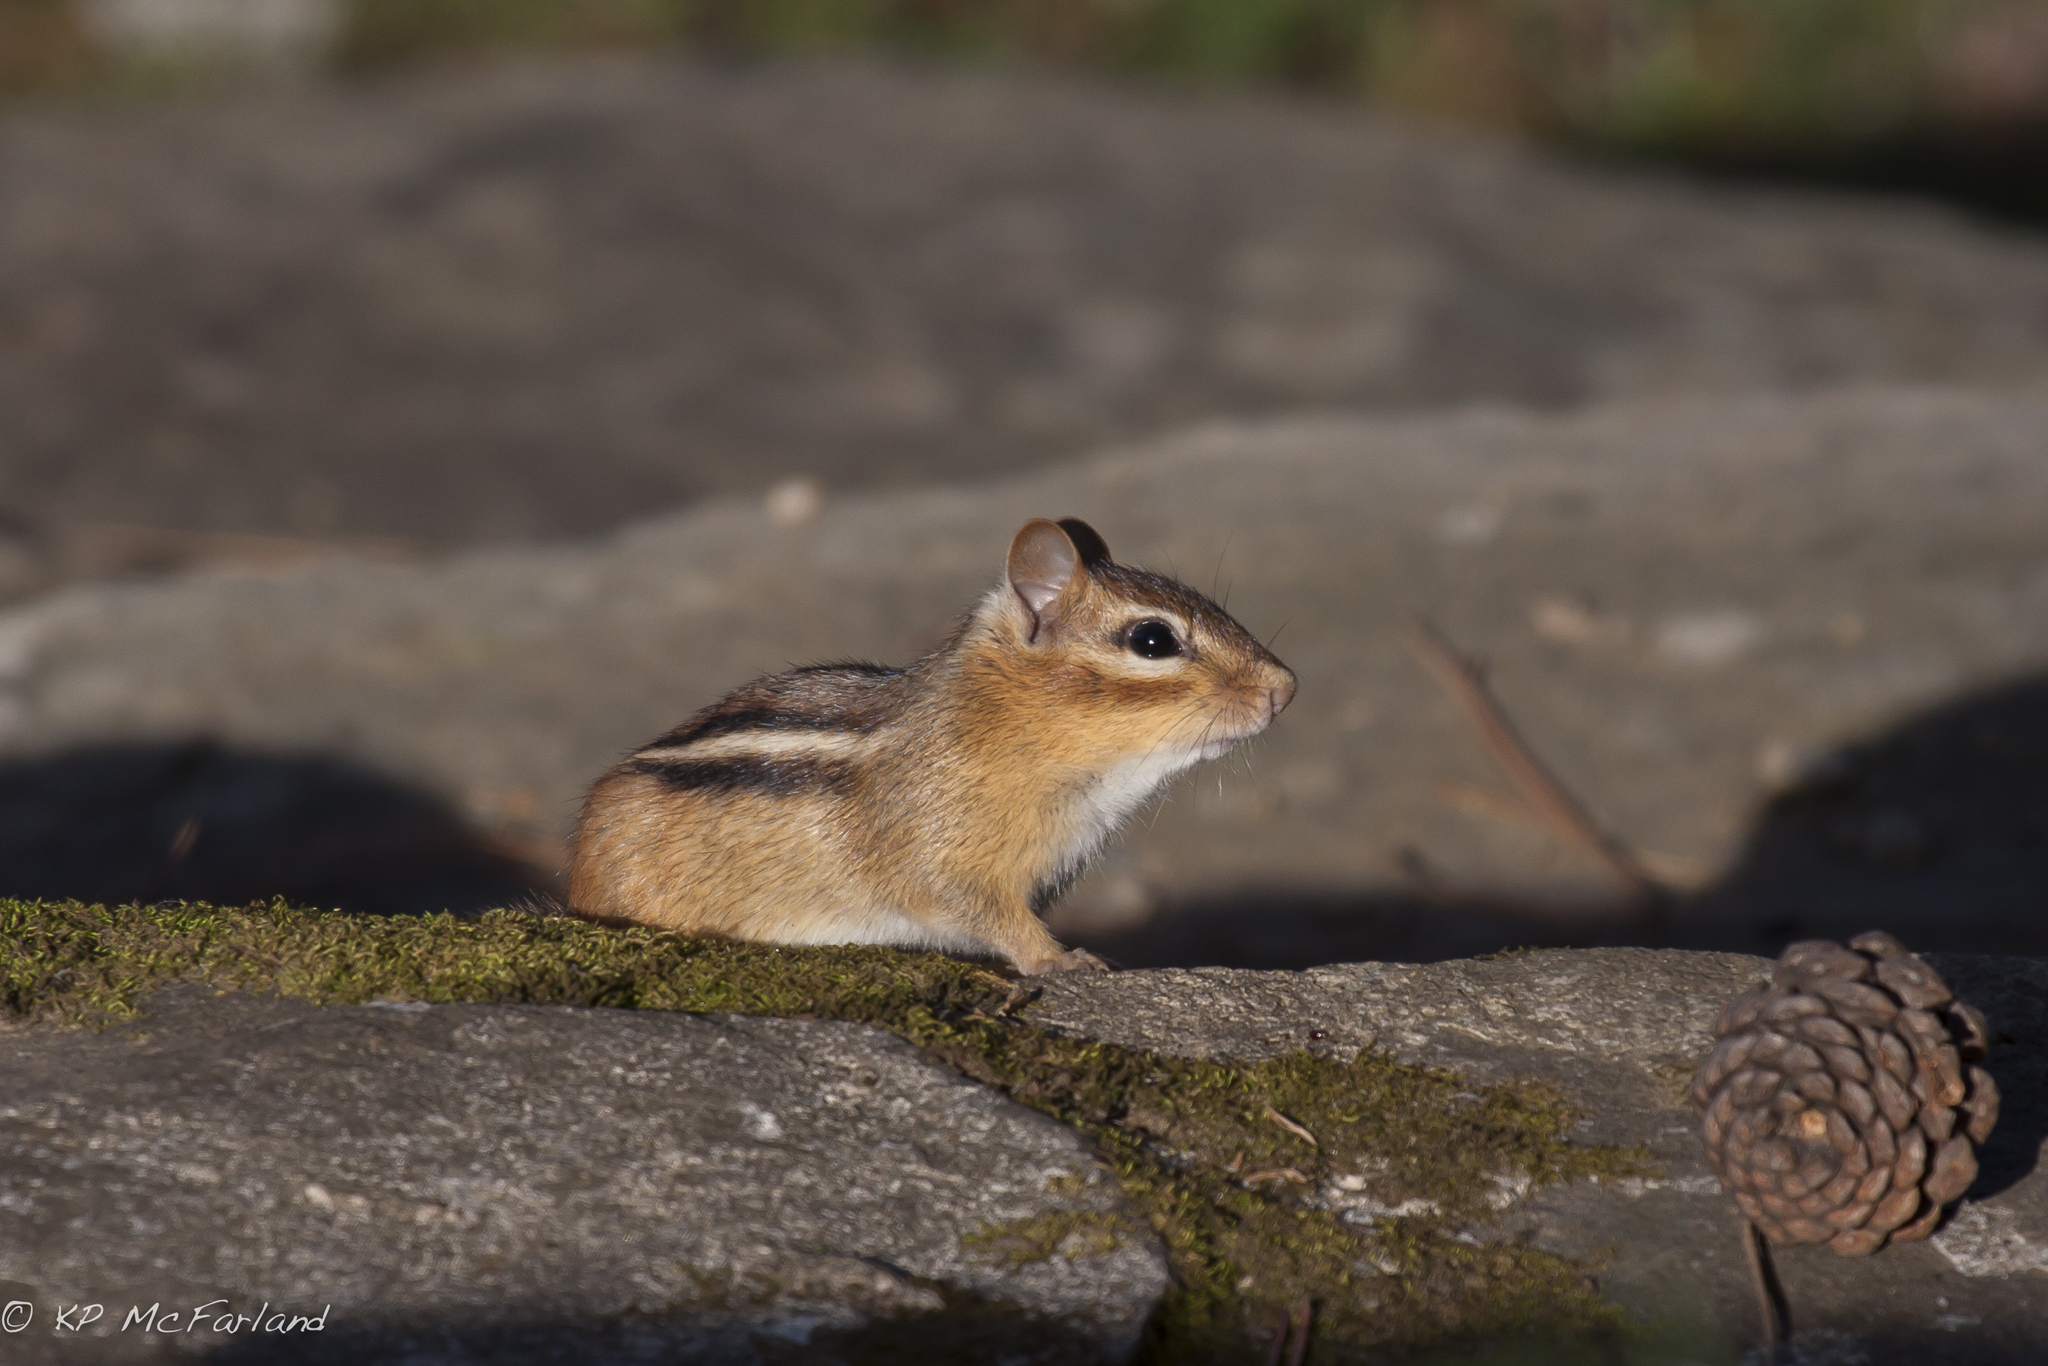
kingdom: Animalia
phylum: Chordata
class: Mammalia
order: Rodentia
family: Sciuridae
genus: Tamias
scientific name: Tamias striatus
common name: Eastern chipmunk
